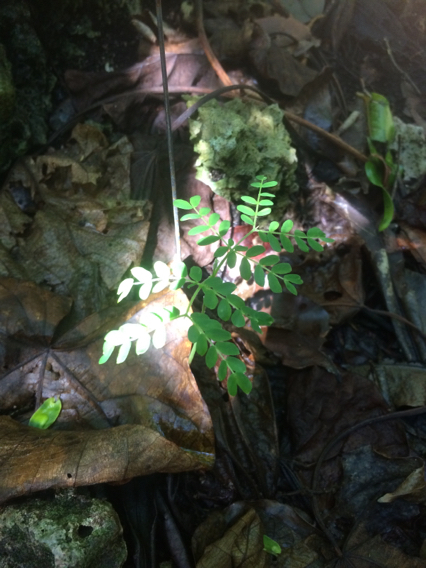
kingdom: Plantae
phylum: Tracheophyta
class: Magnoliopsida
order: Fabales
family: Fabaceae
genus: Serianthes
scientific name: Serianthes nelsonii
